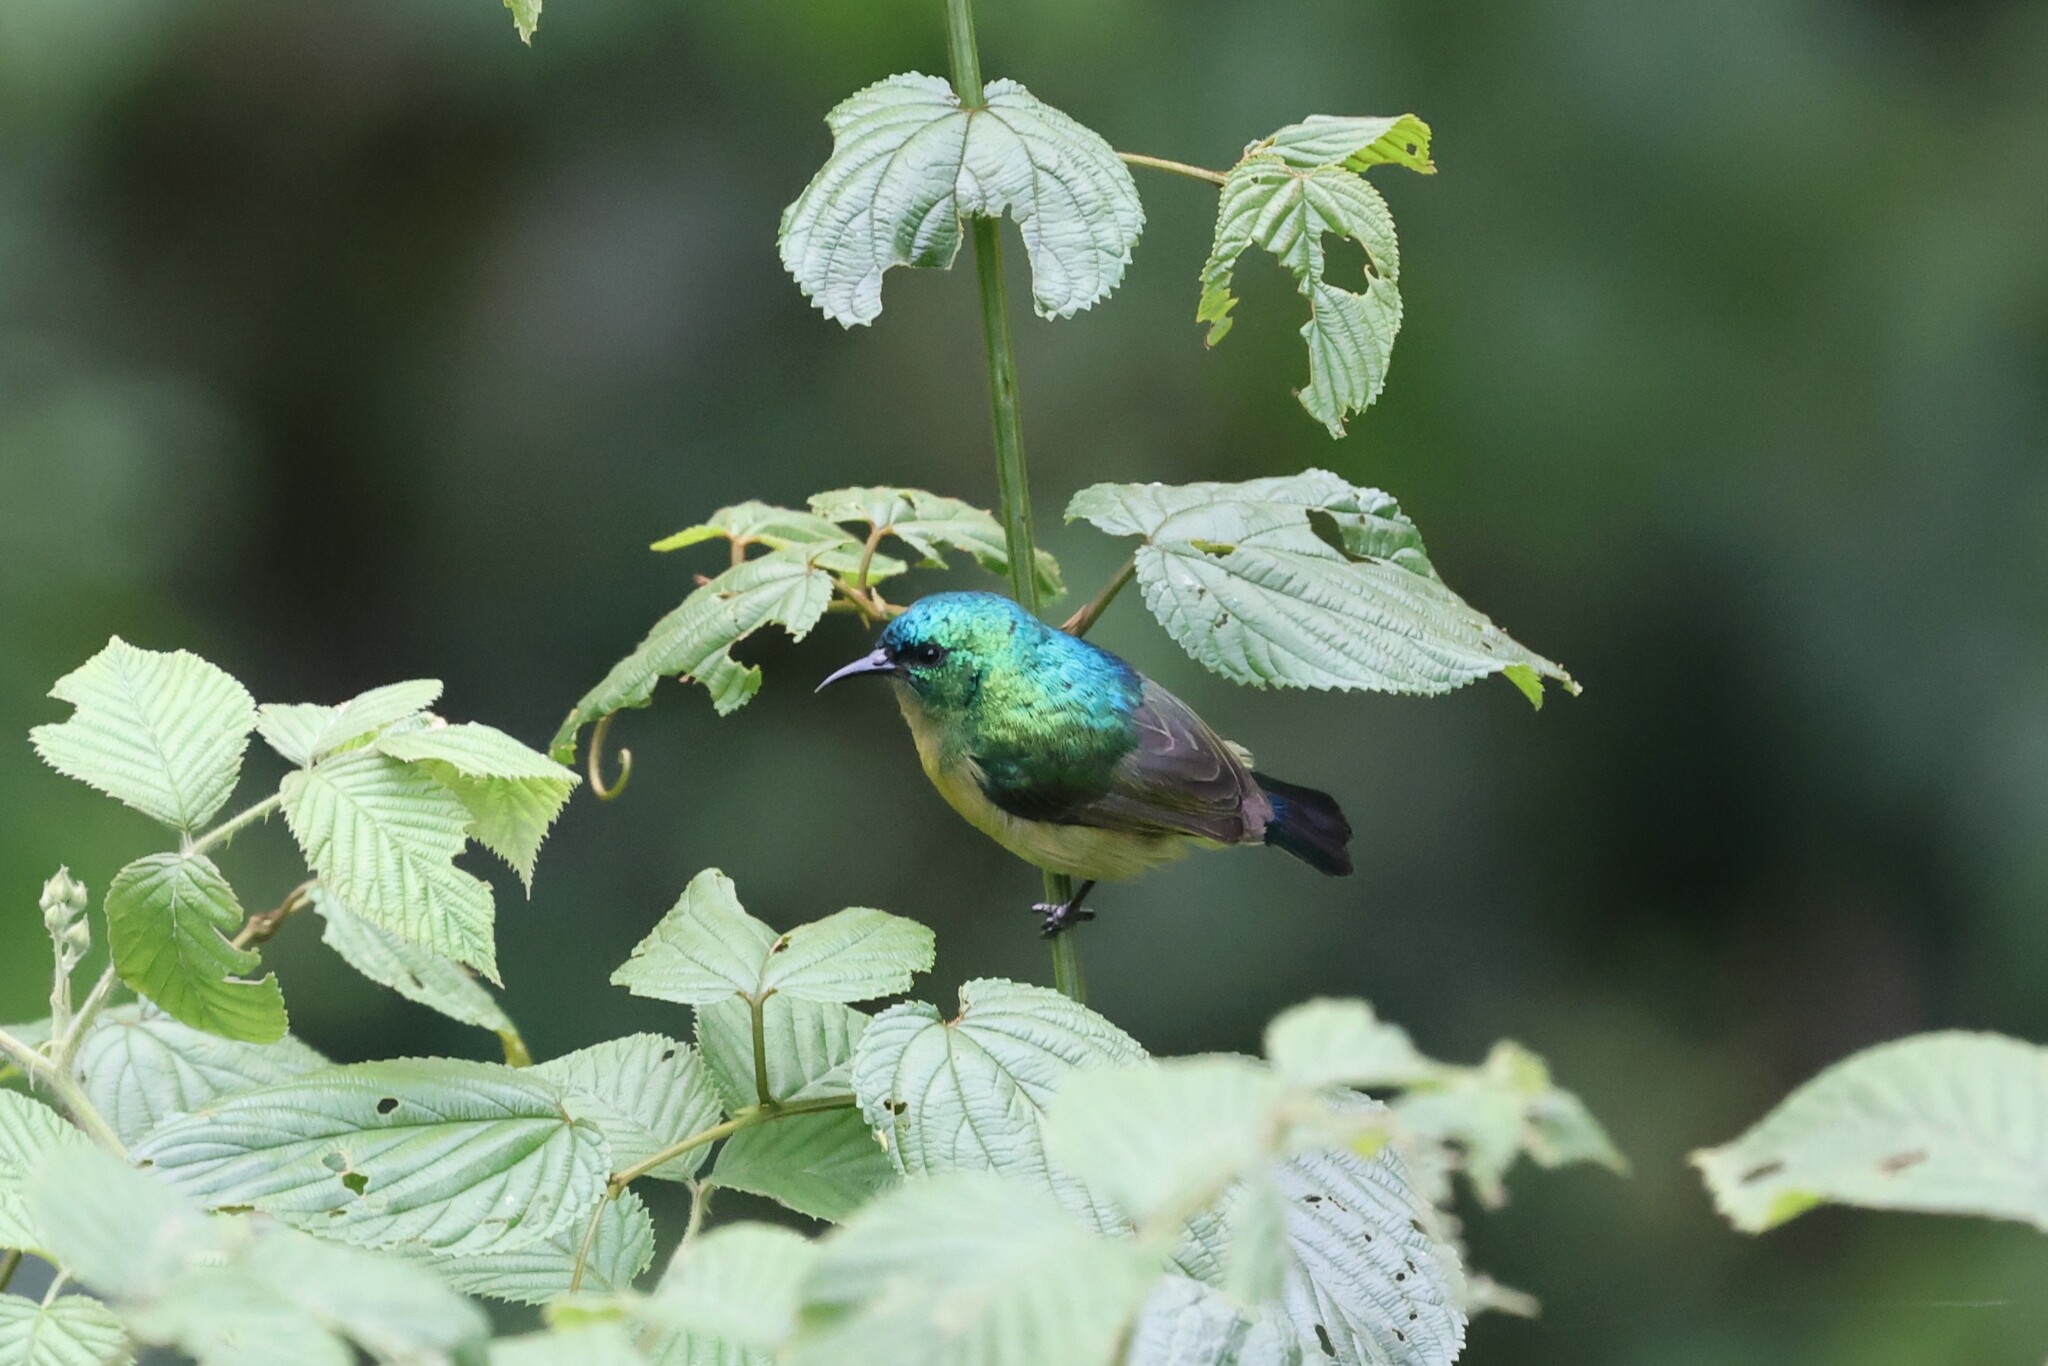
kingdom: Animalia
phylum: Chordata
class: Aves
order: Passeriformes
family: Nectariniidae
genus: Hedydipna
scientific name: Hedydipna collaris
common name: Collared sunbird
